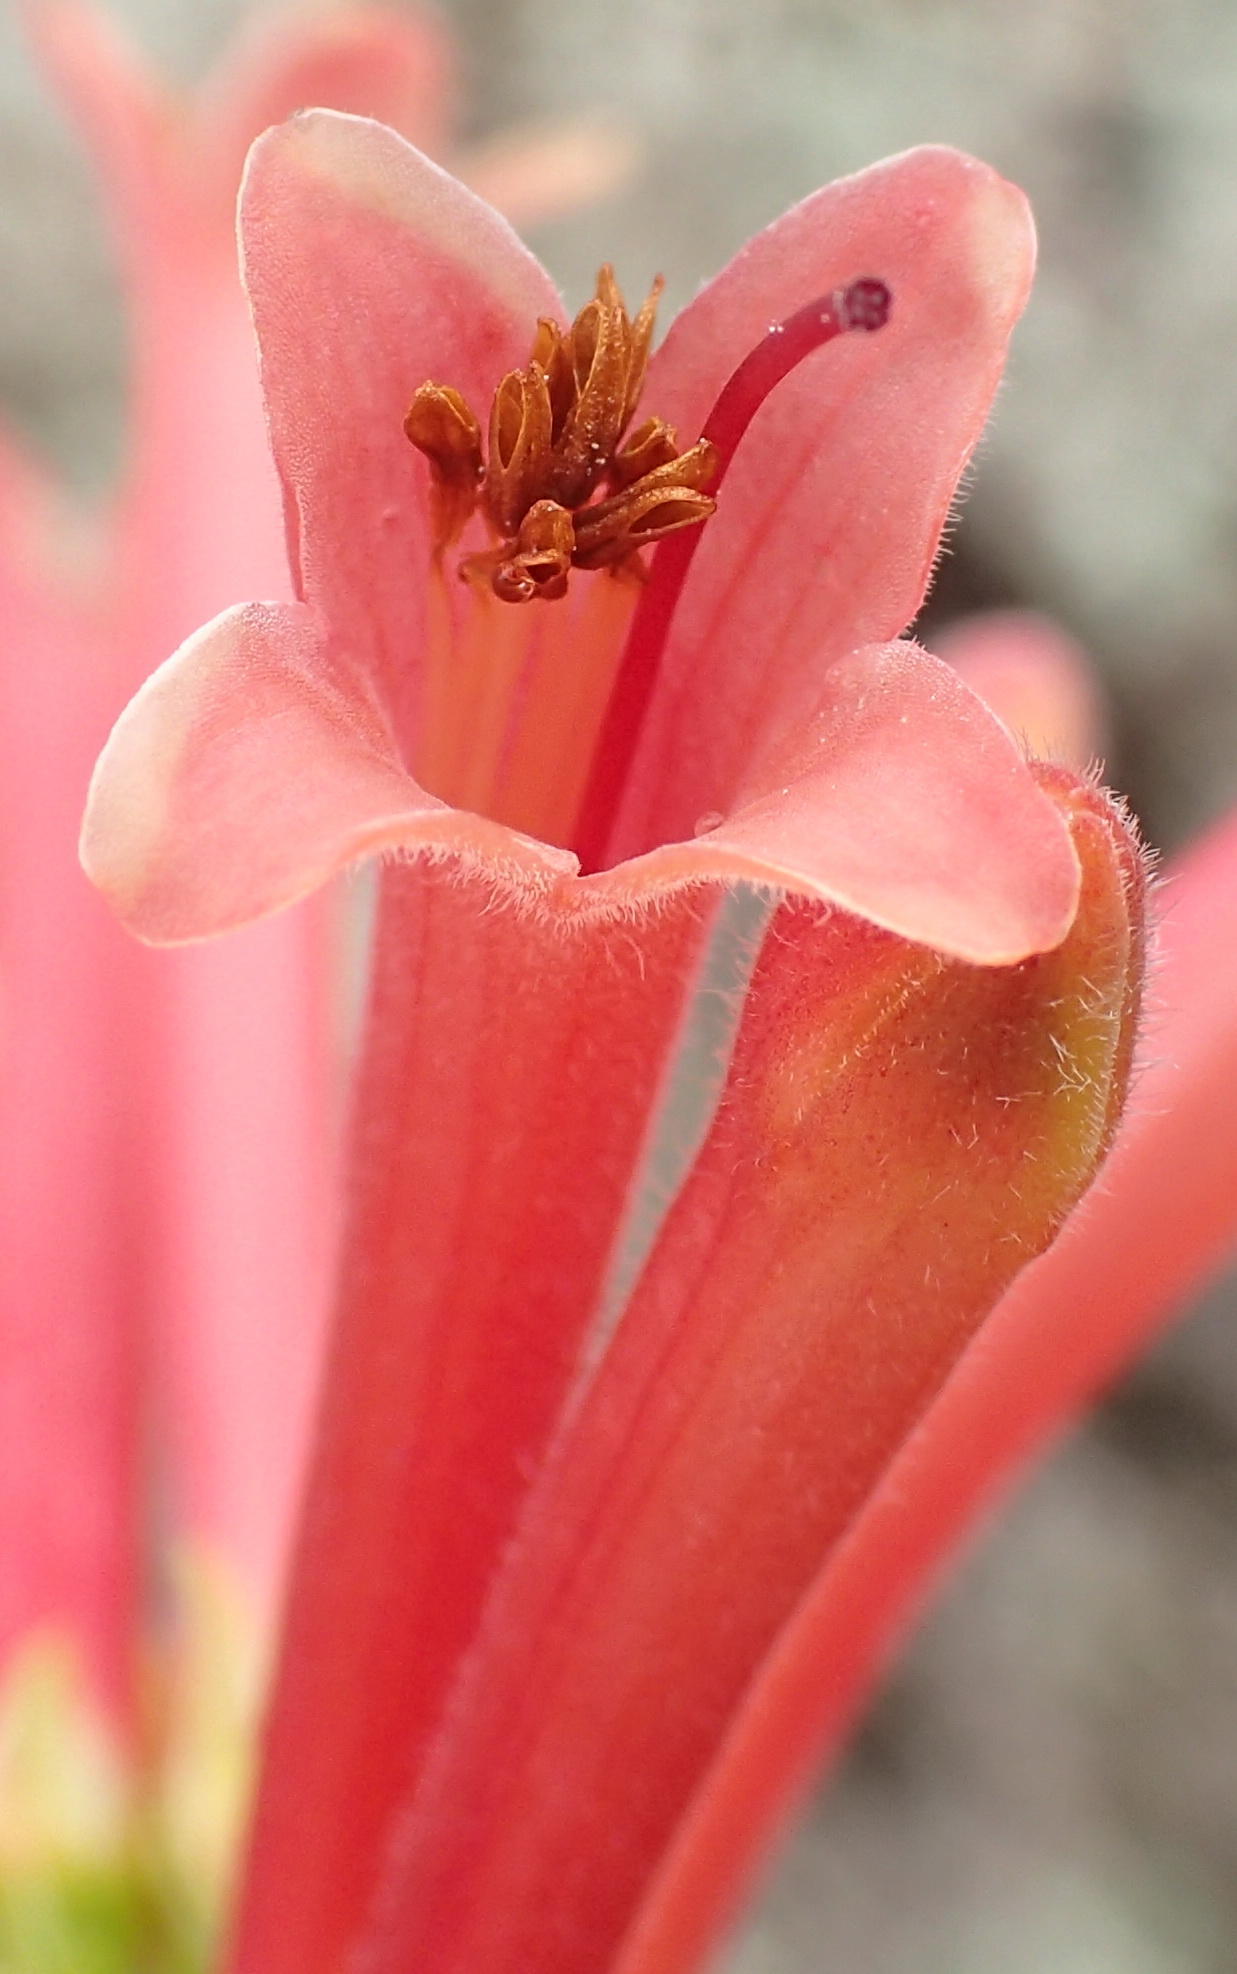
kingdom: Plantae
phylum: Tracheophyta
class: Magnoliopsida
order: Ericales
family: Ericaceae
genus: Erica
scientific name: Erica curviflora
